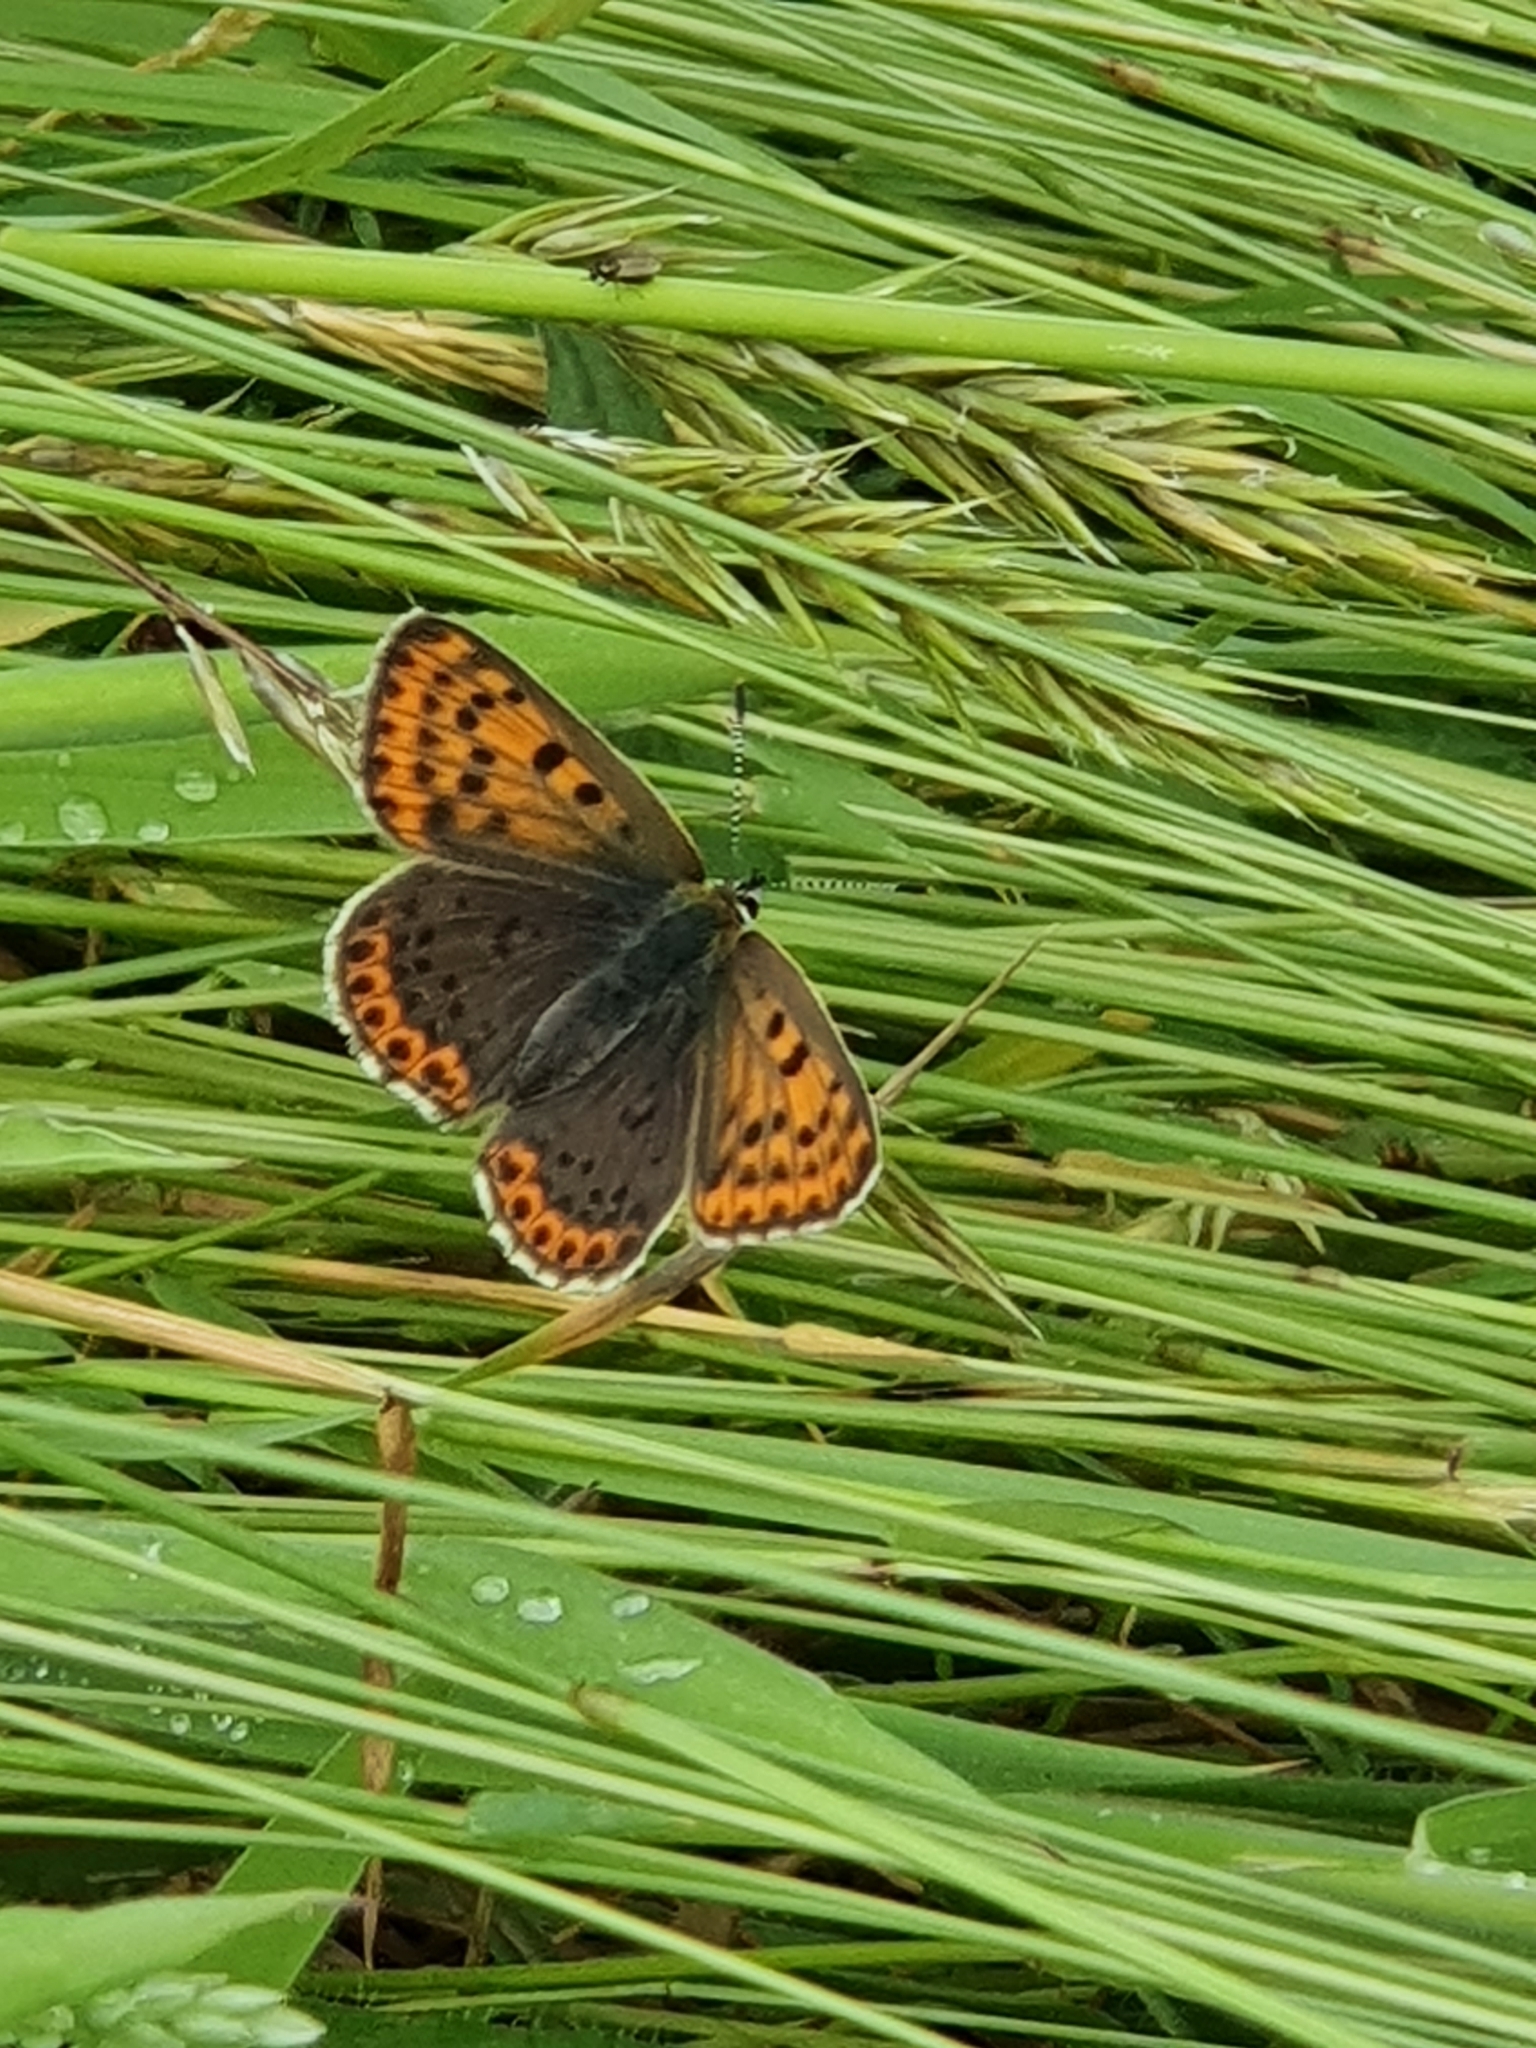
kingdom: Animalia
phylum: Arthropoda
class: Insecta
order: Lepidoptera
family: Lycaenidae
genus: Loweia
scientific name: Loweia tityrus
